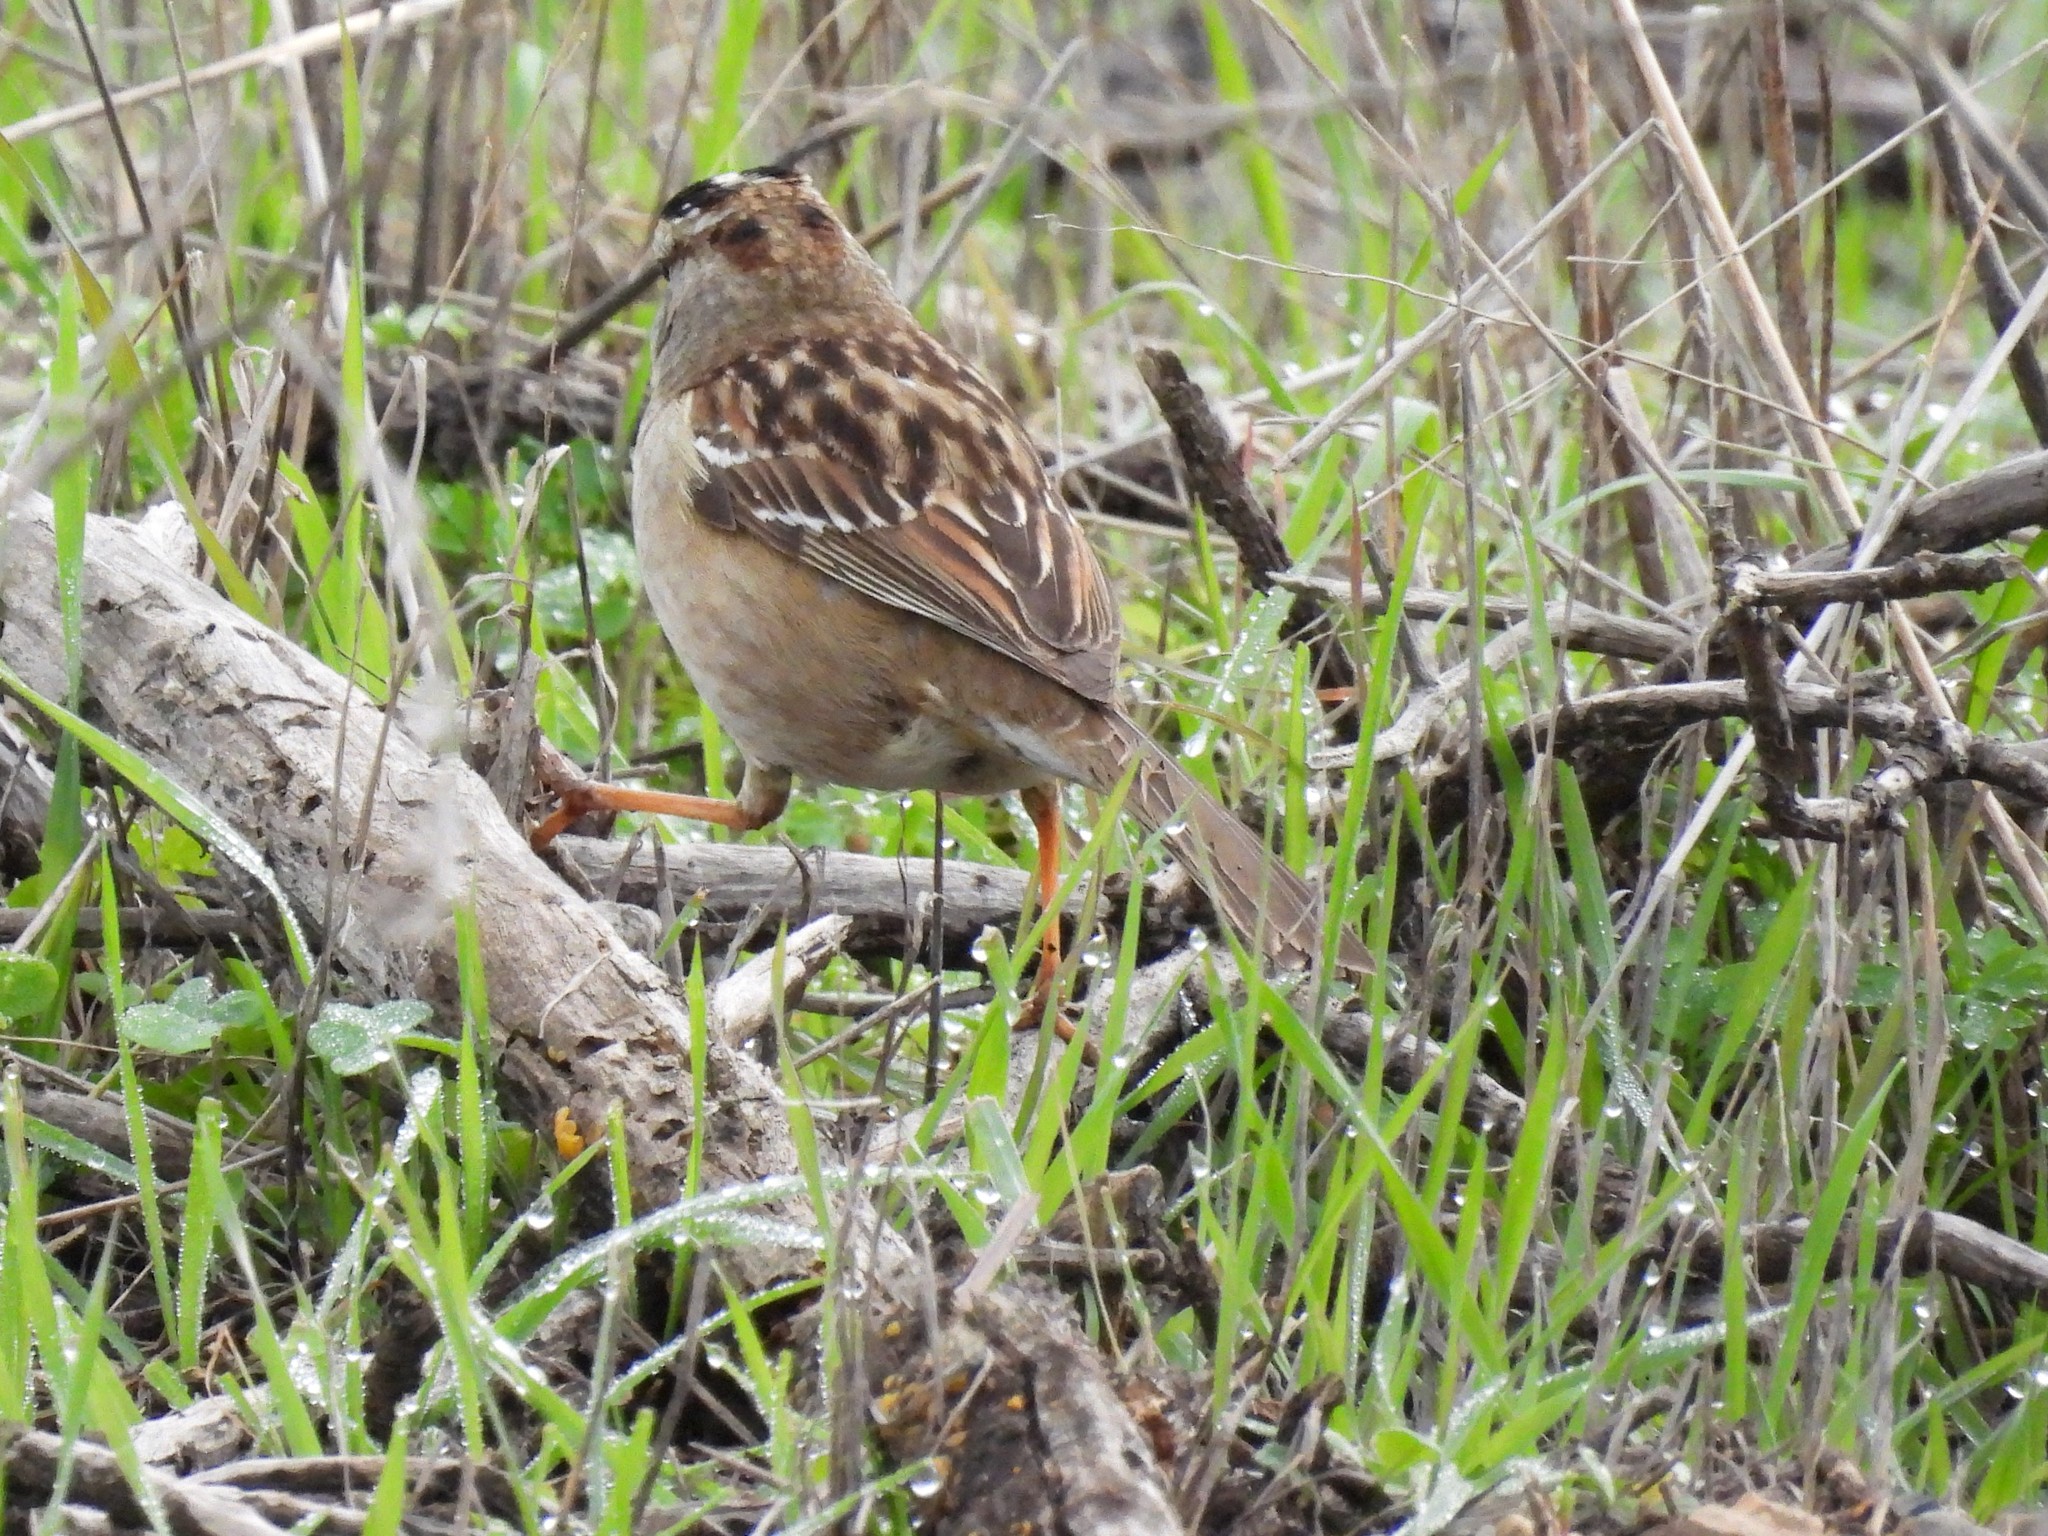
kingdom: Animalia
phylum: Chordata
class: Aves
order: Passeriformes
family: Passerellidae
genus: Zonotrichia
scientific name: Zonotrichia leucophrys
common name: White-crowned sparrow
